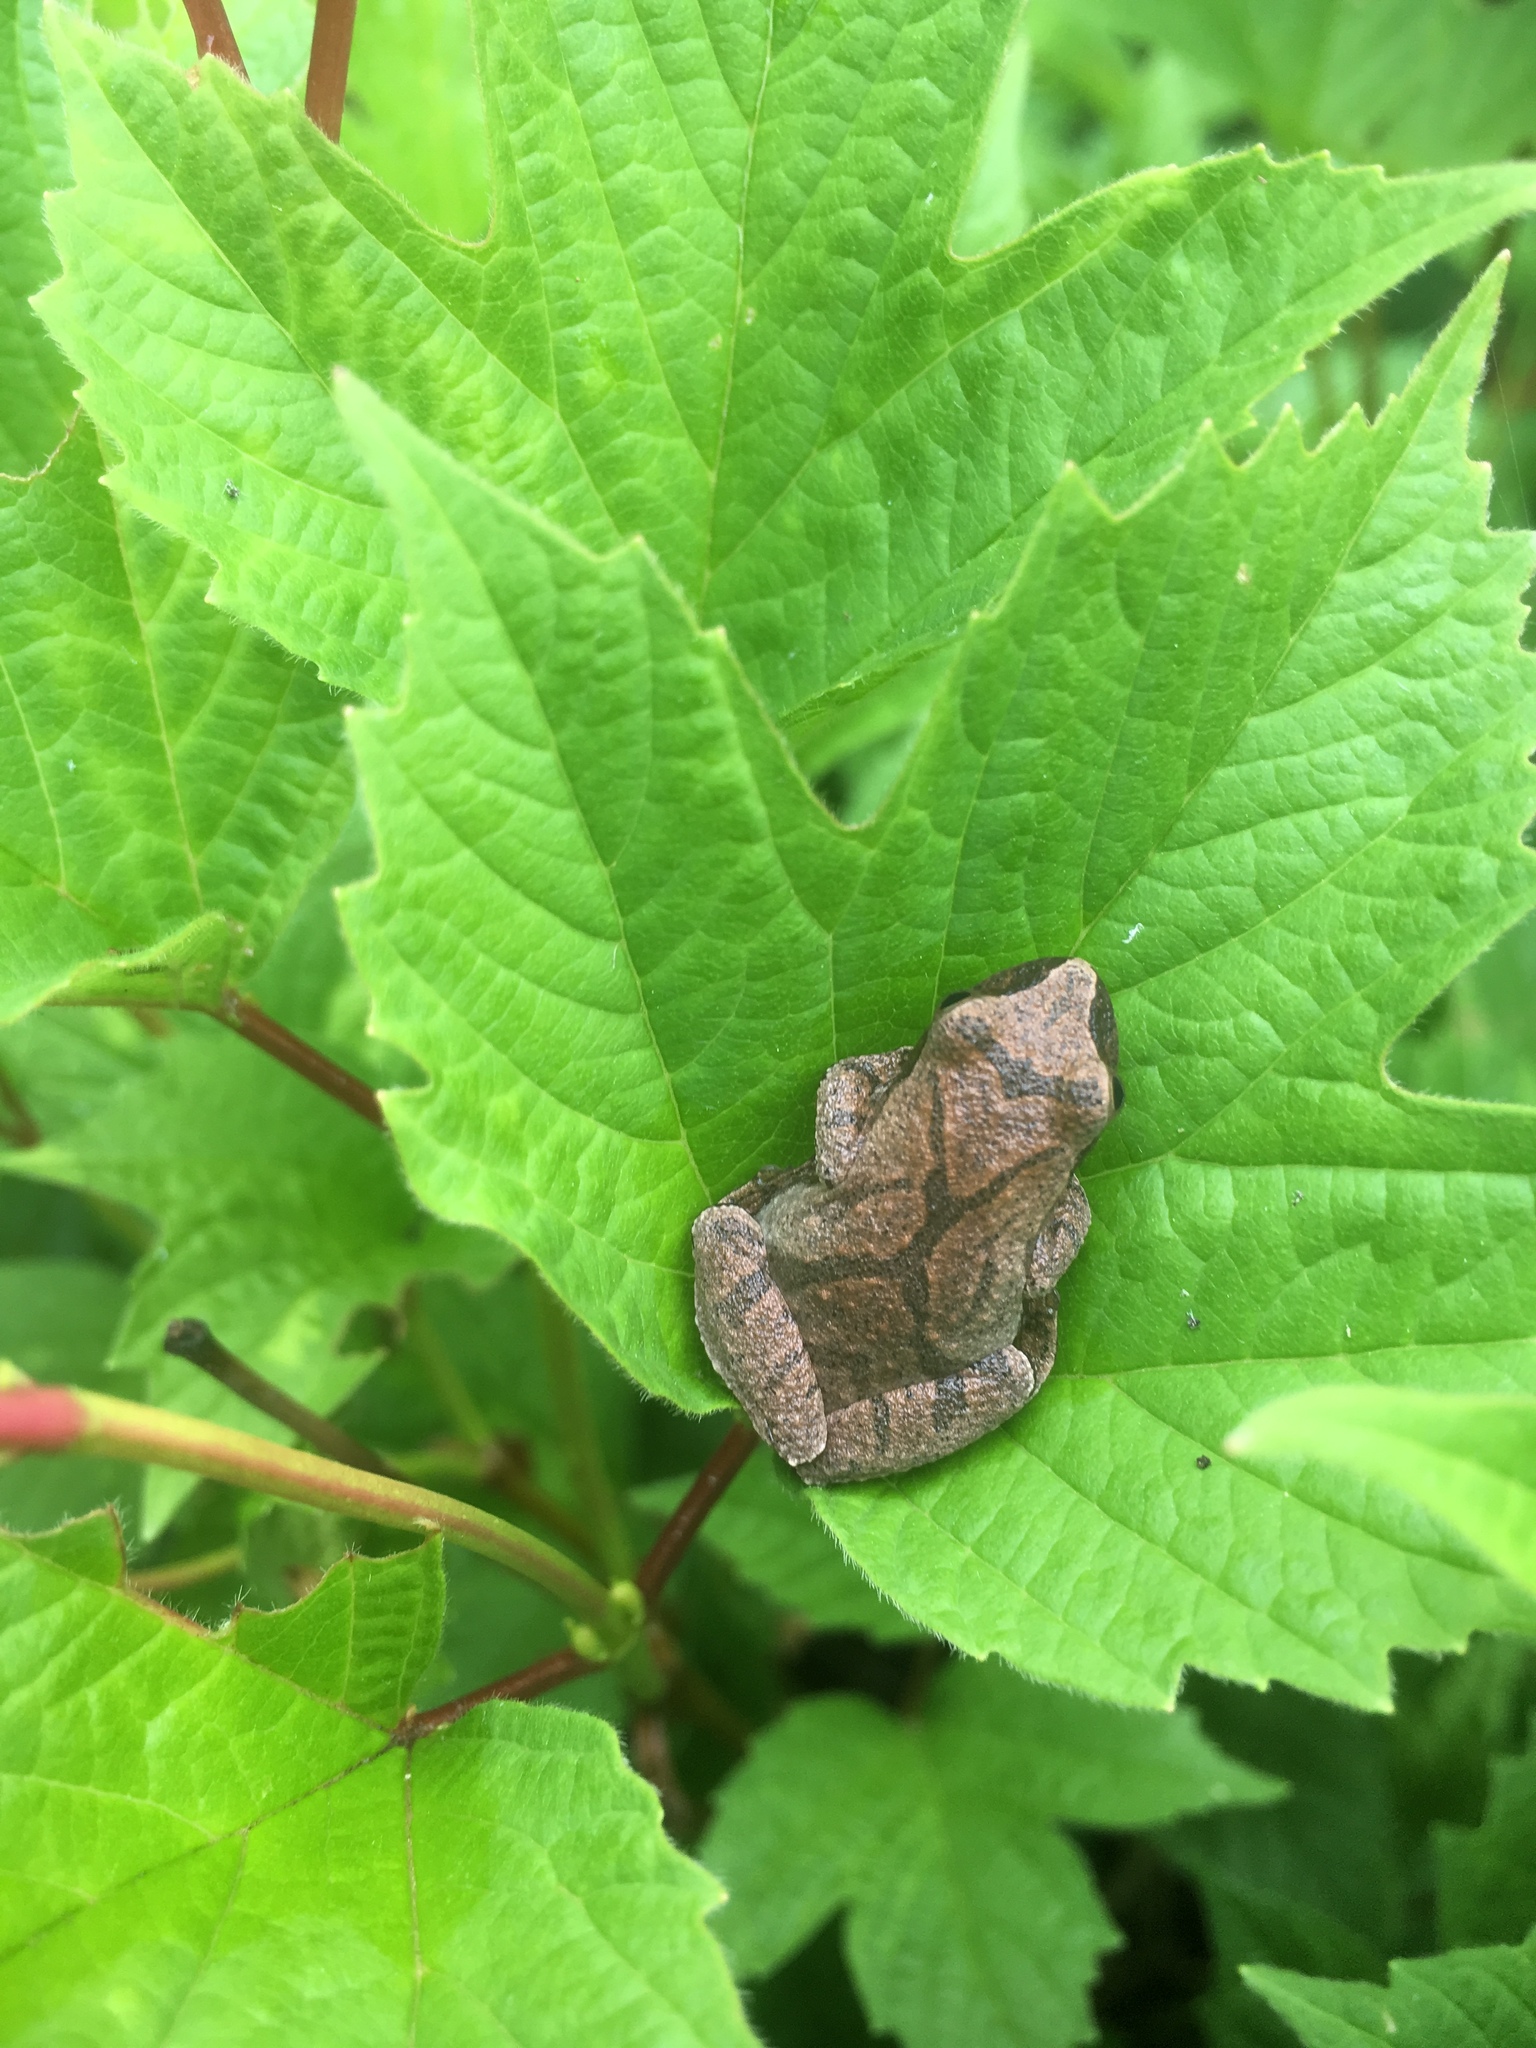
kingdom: Animalia
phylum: Chordata
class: Amphibia
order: Anura
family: Hylidae
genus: Pseudacris
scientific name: Pseudacris crucifer
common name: Spring peeper
